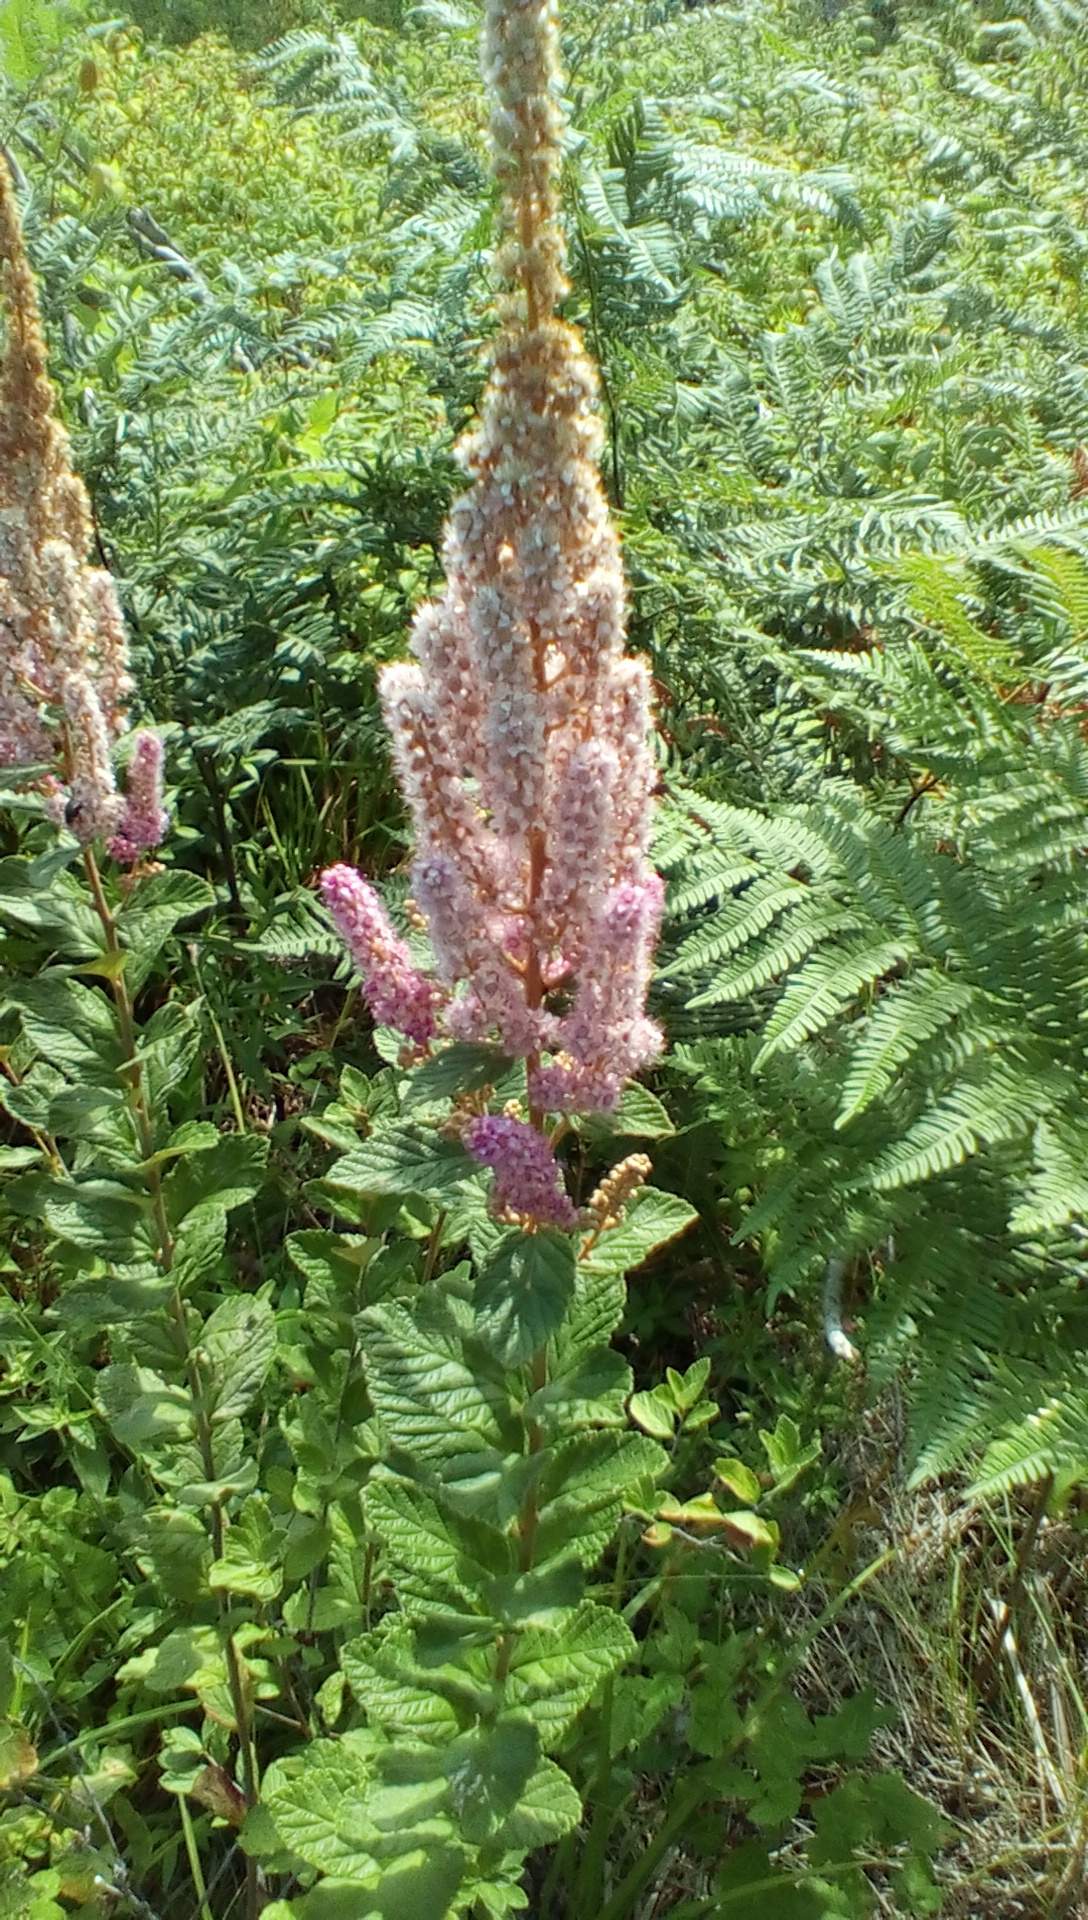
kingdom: Plantae
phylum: Tracheophyta
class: Magnoliopsida
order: Rosales
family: Rosaceae
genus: Spiraea
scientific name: Spiraea tomentosa
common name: Hardhack
